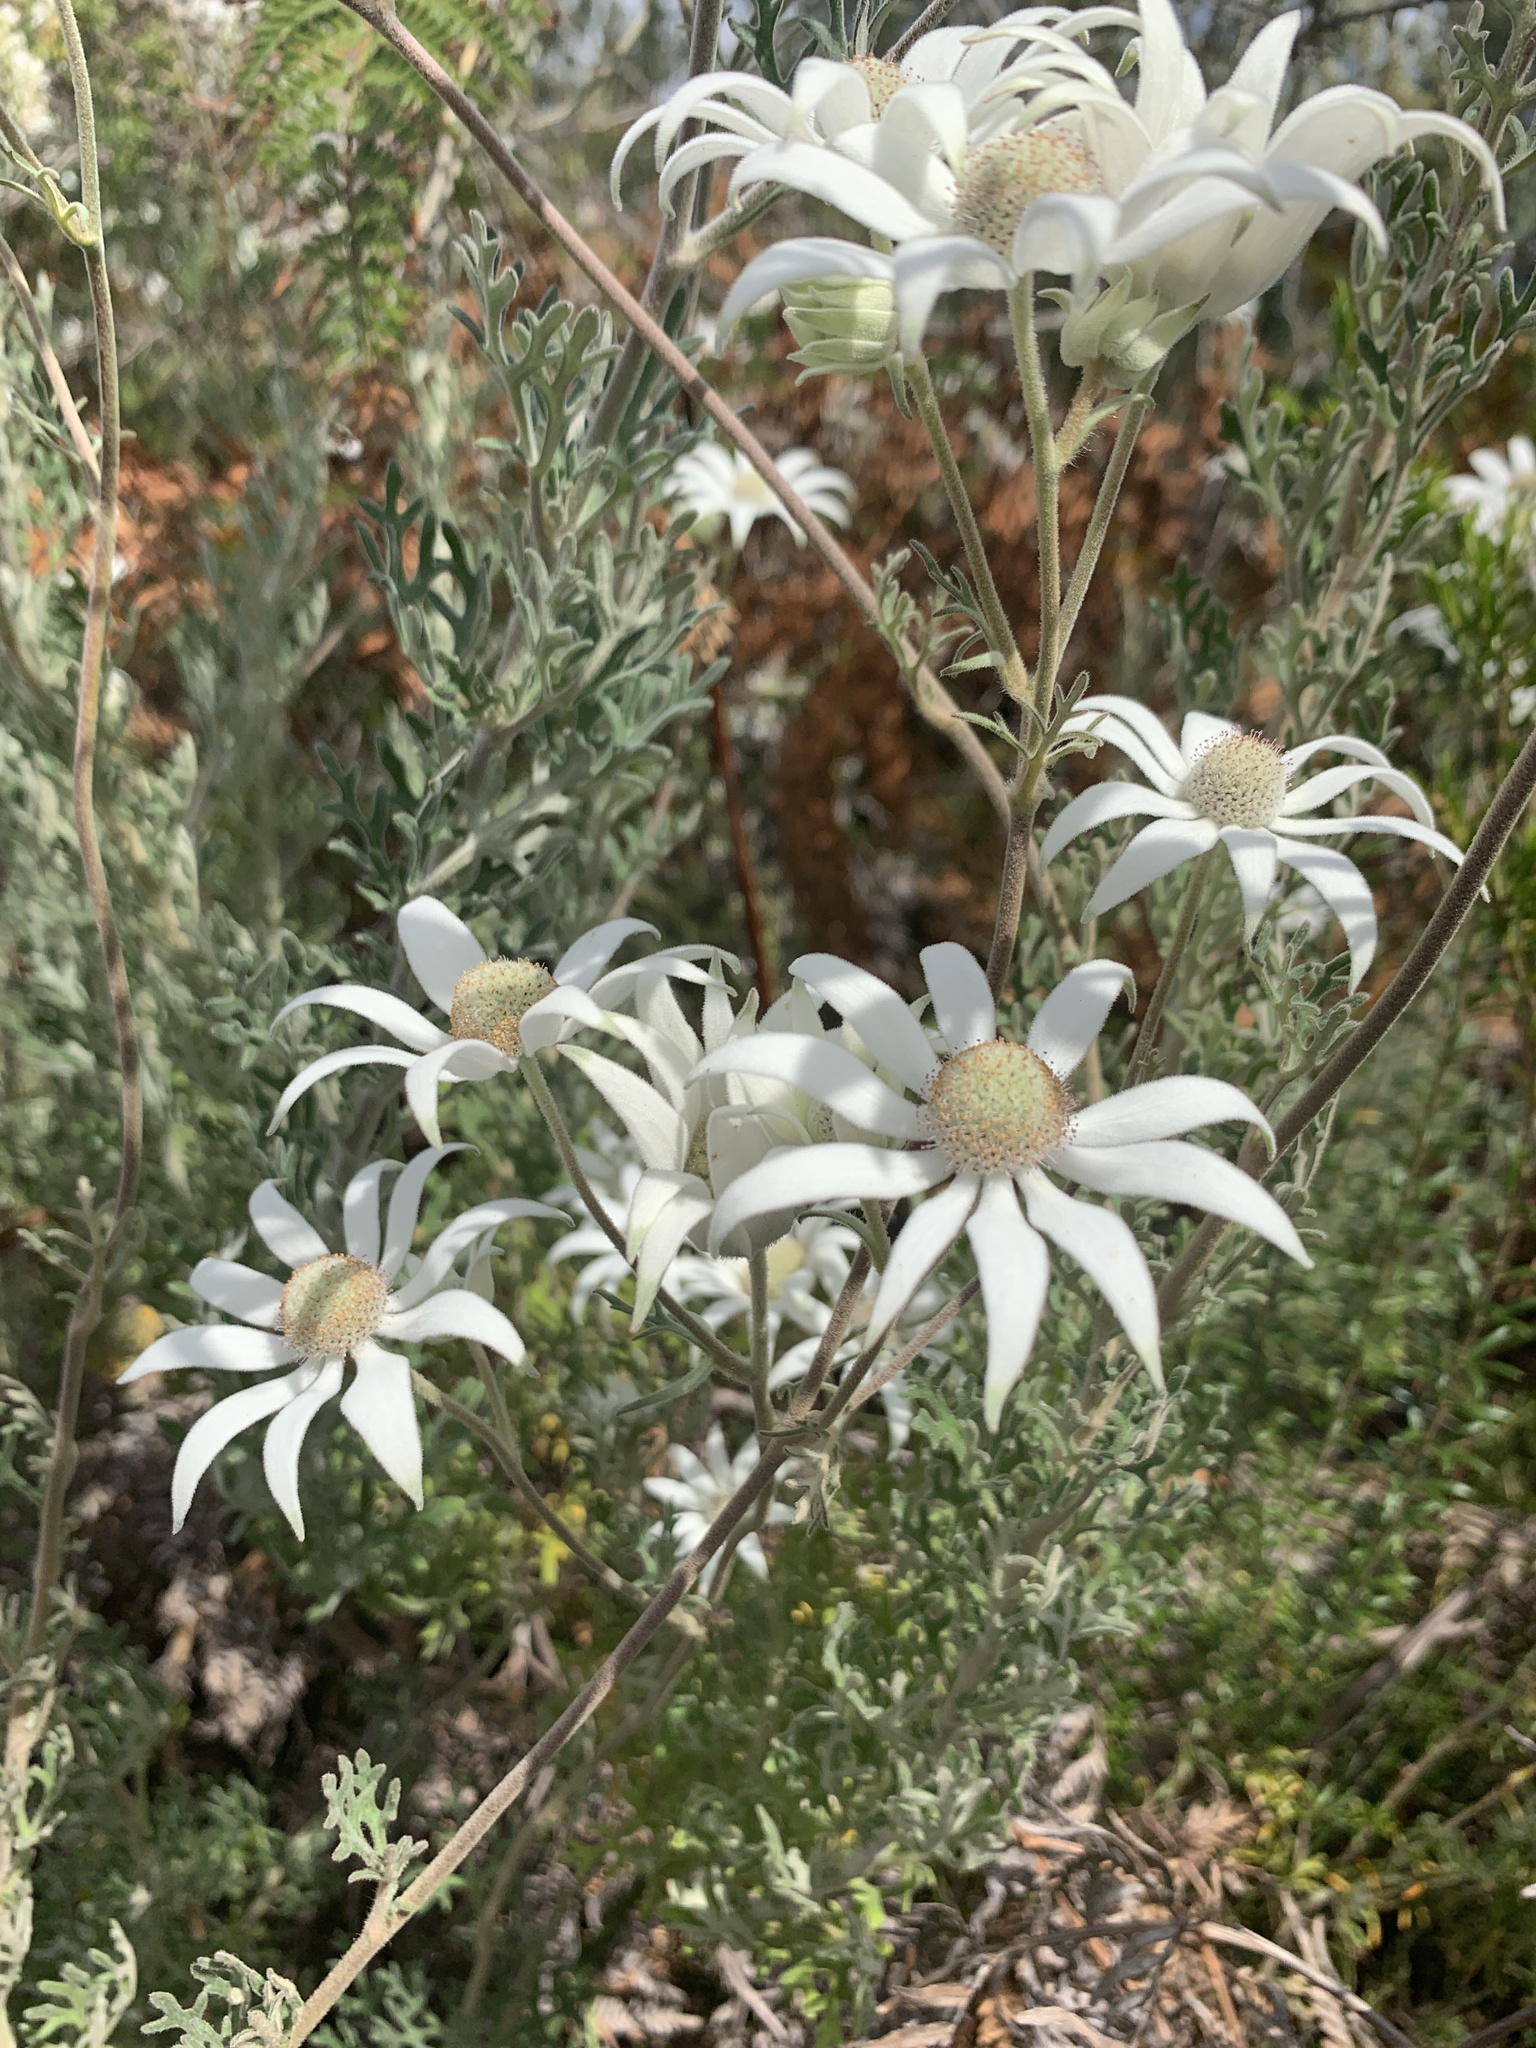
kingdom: Plantae
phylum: Tracheophyta
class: Magnoliopsida
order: Apiales
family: Apiaceae
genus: Actinotus
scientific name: Actinotus helianthi
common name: Flannel-flower
